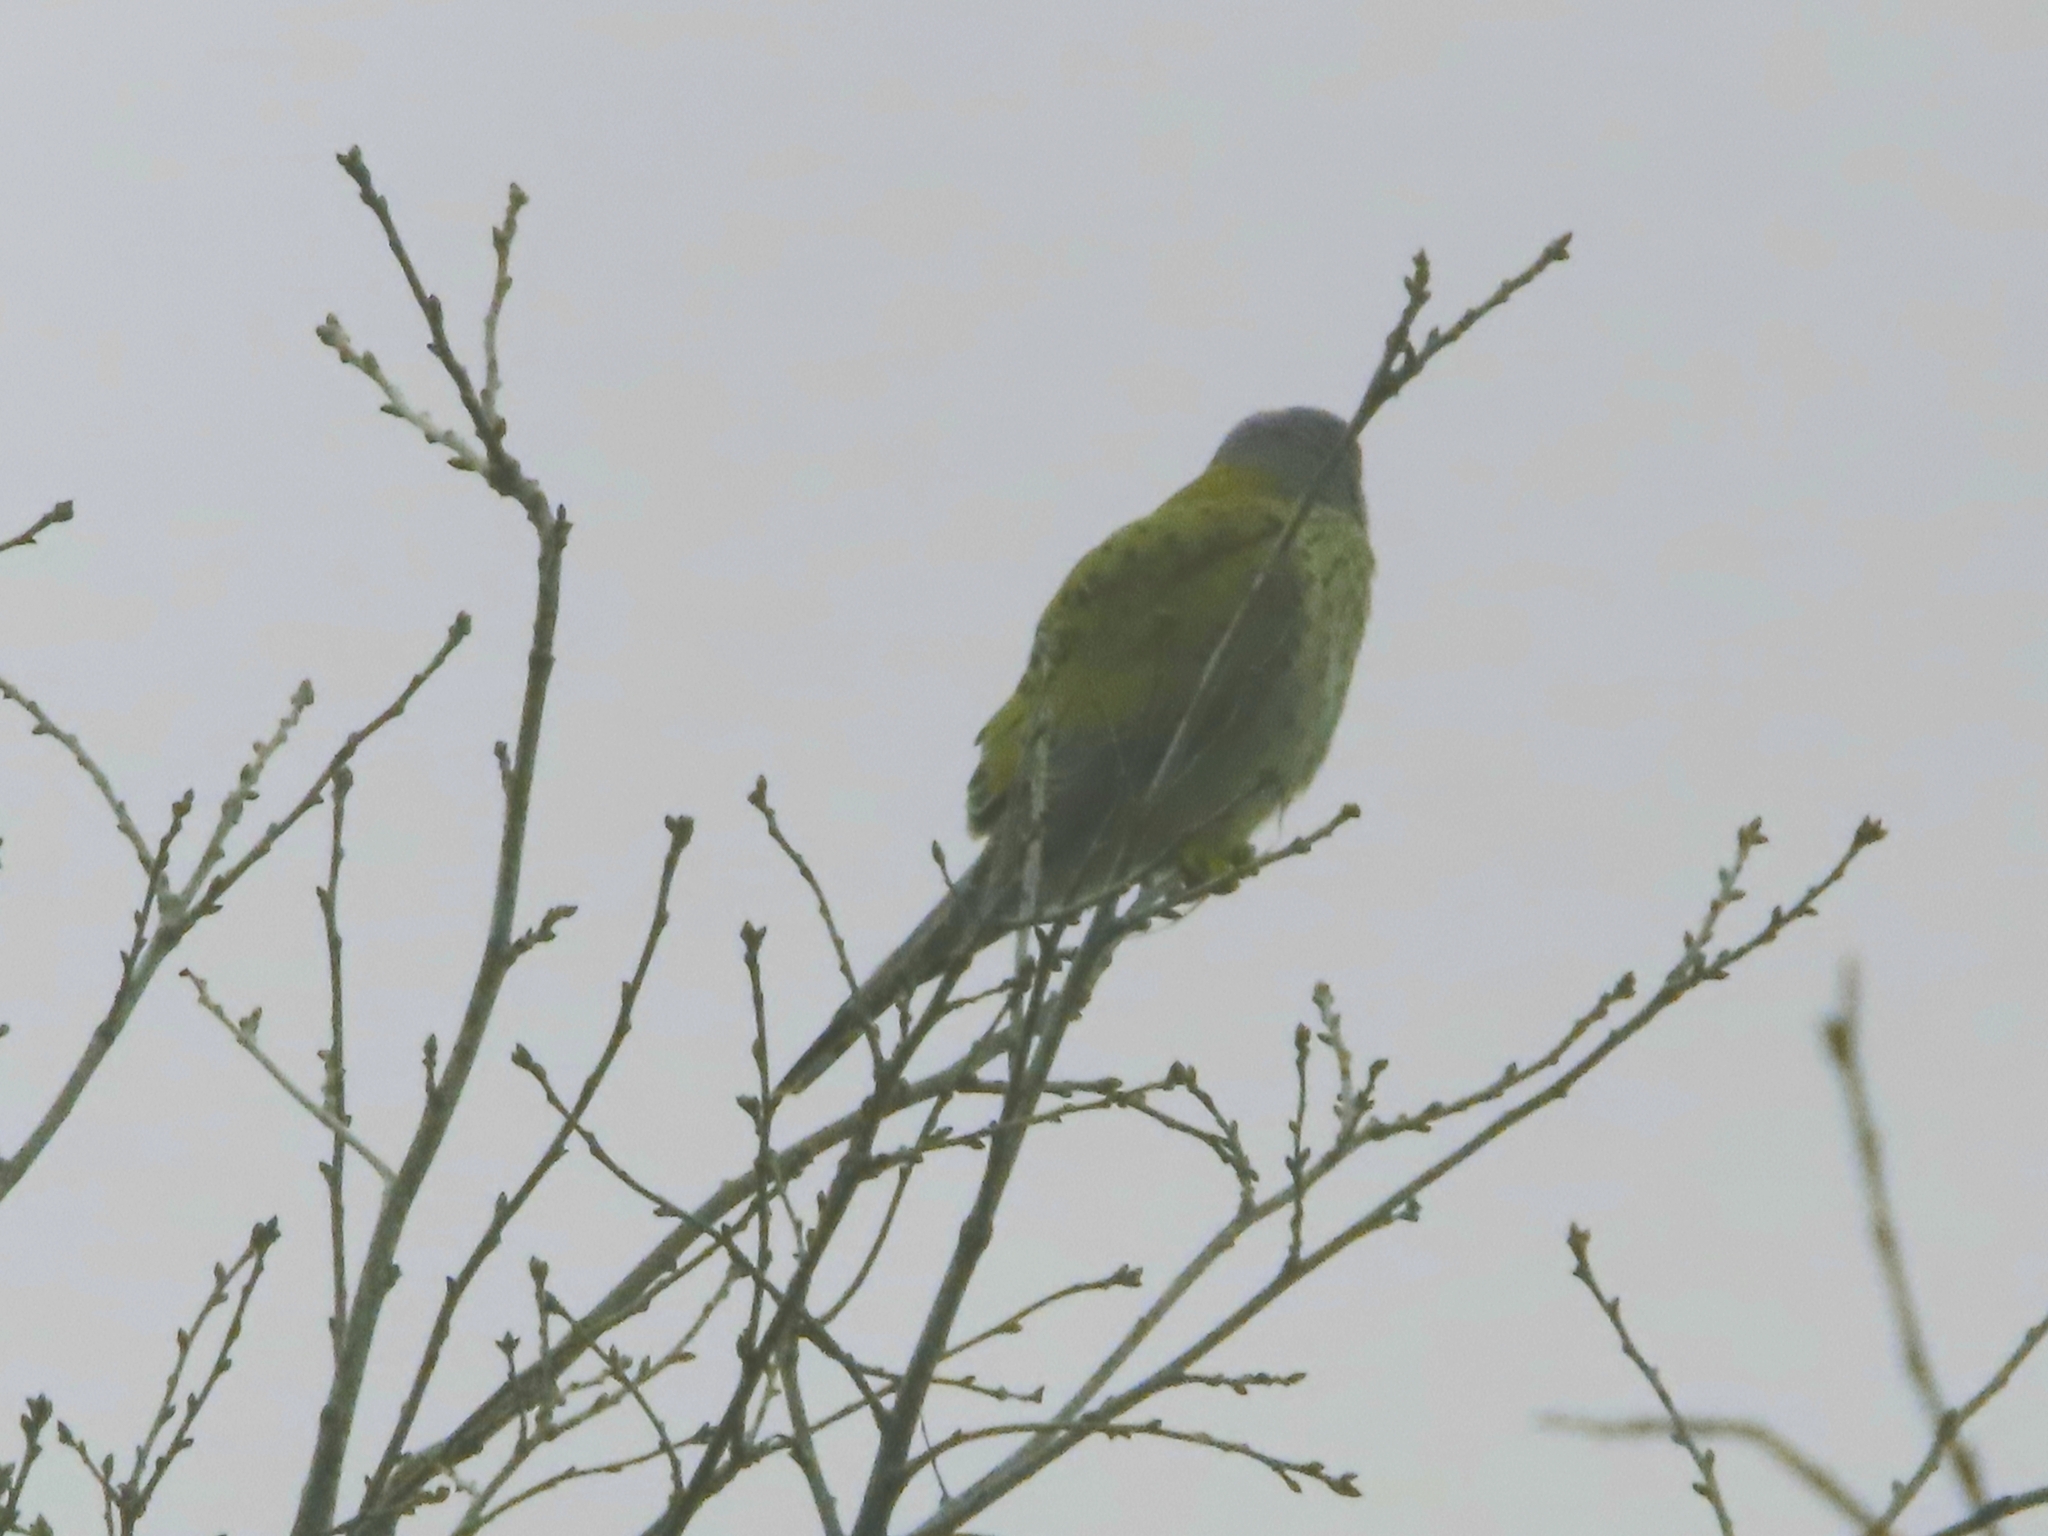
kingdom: Animalia
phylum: Chordata
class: Aves
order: Falconiformes
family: Falconidae
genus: Falco
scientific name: Falco tinnunculus
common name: Common kestrel
